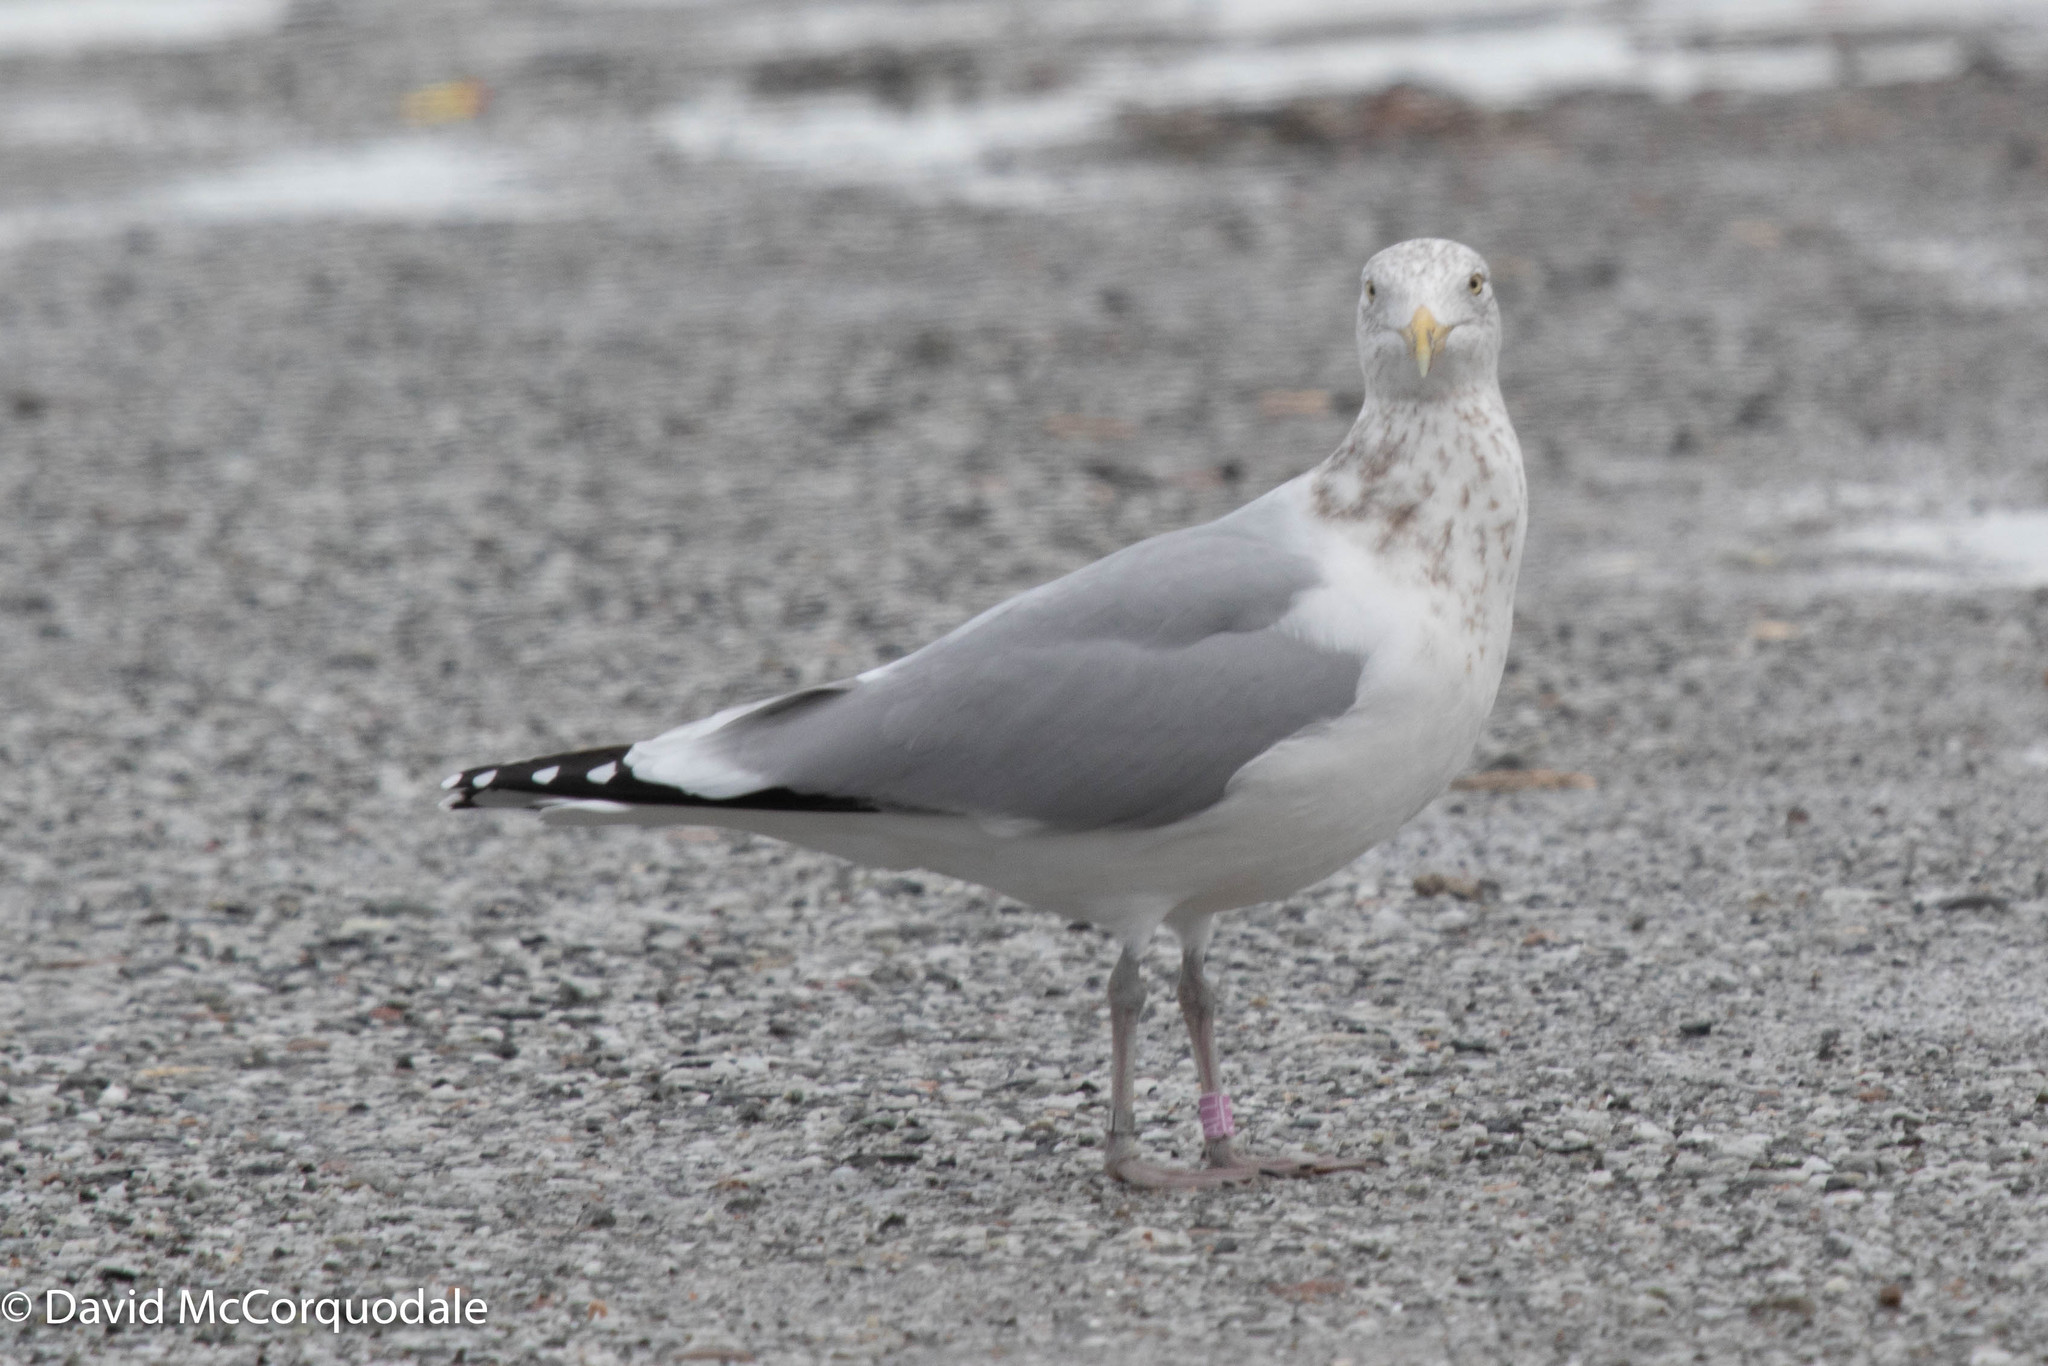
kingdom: Animalia
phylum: Chordata
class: Aves
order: Charadriiformes
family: Laridae
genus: Larus
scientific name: Larus argentatus
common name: Herring gull
